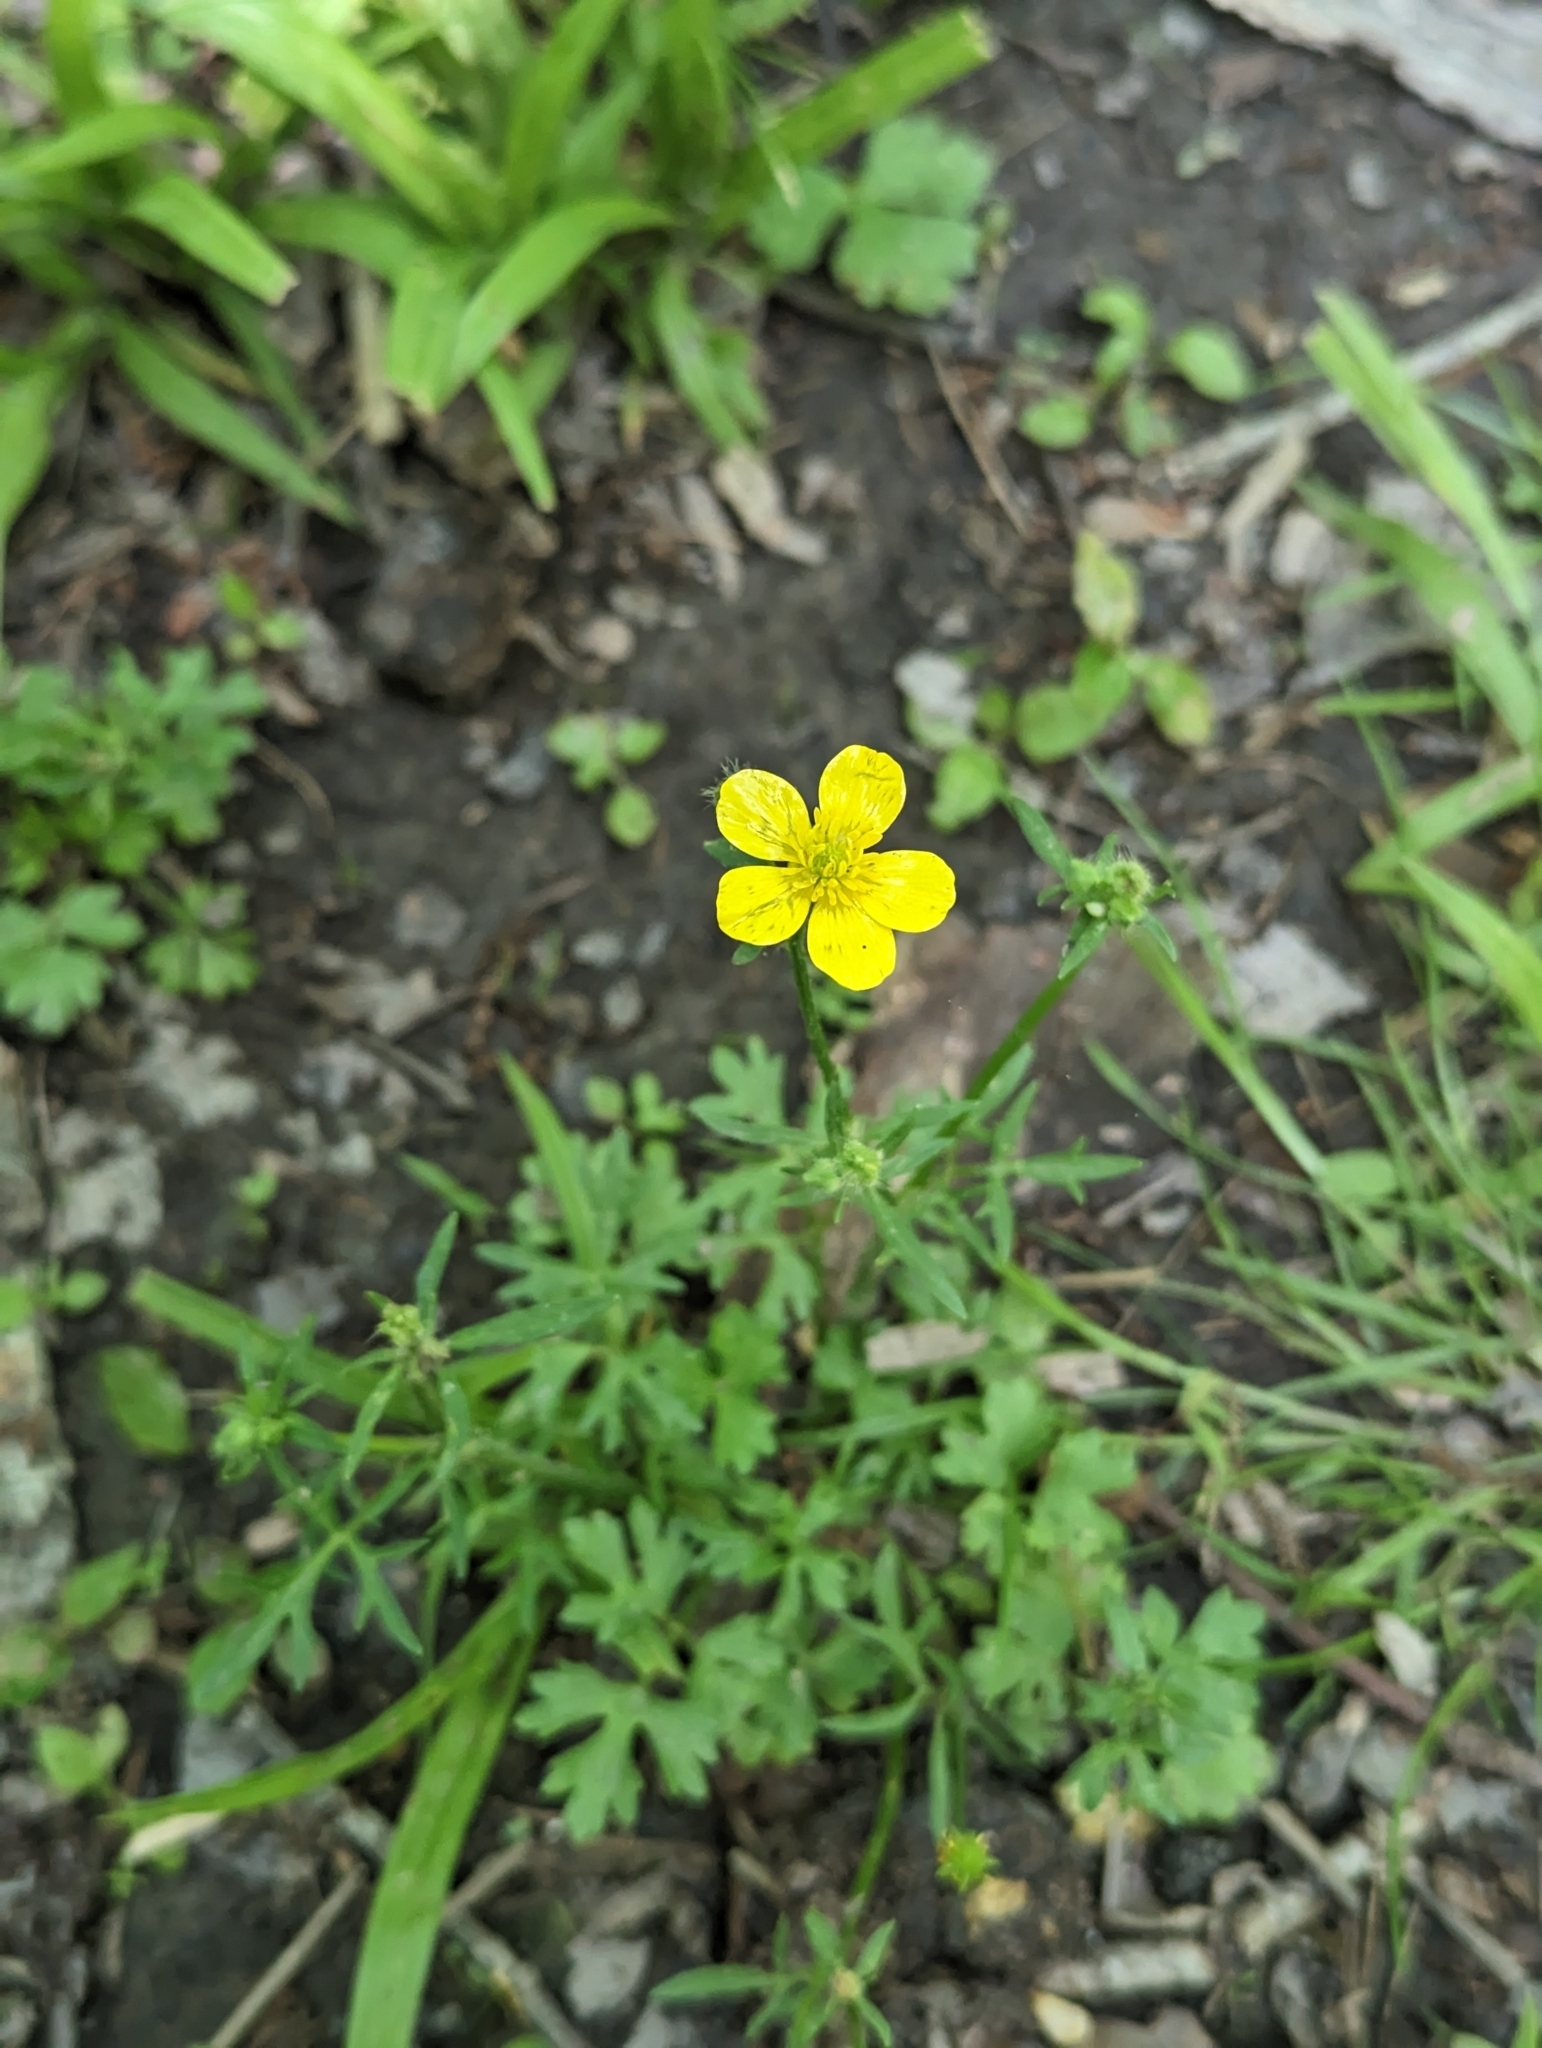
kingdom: Plantae
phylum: Tracheophyta
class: Magnoliopsida
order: Ranunculales
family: Ranunculaceae
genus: Ranunculus
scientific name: Ranunculus sardous
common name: Hairy buttercup
